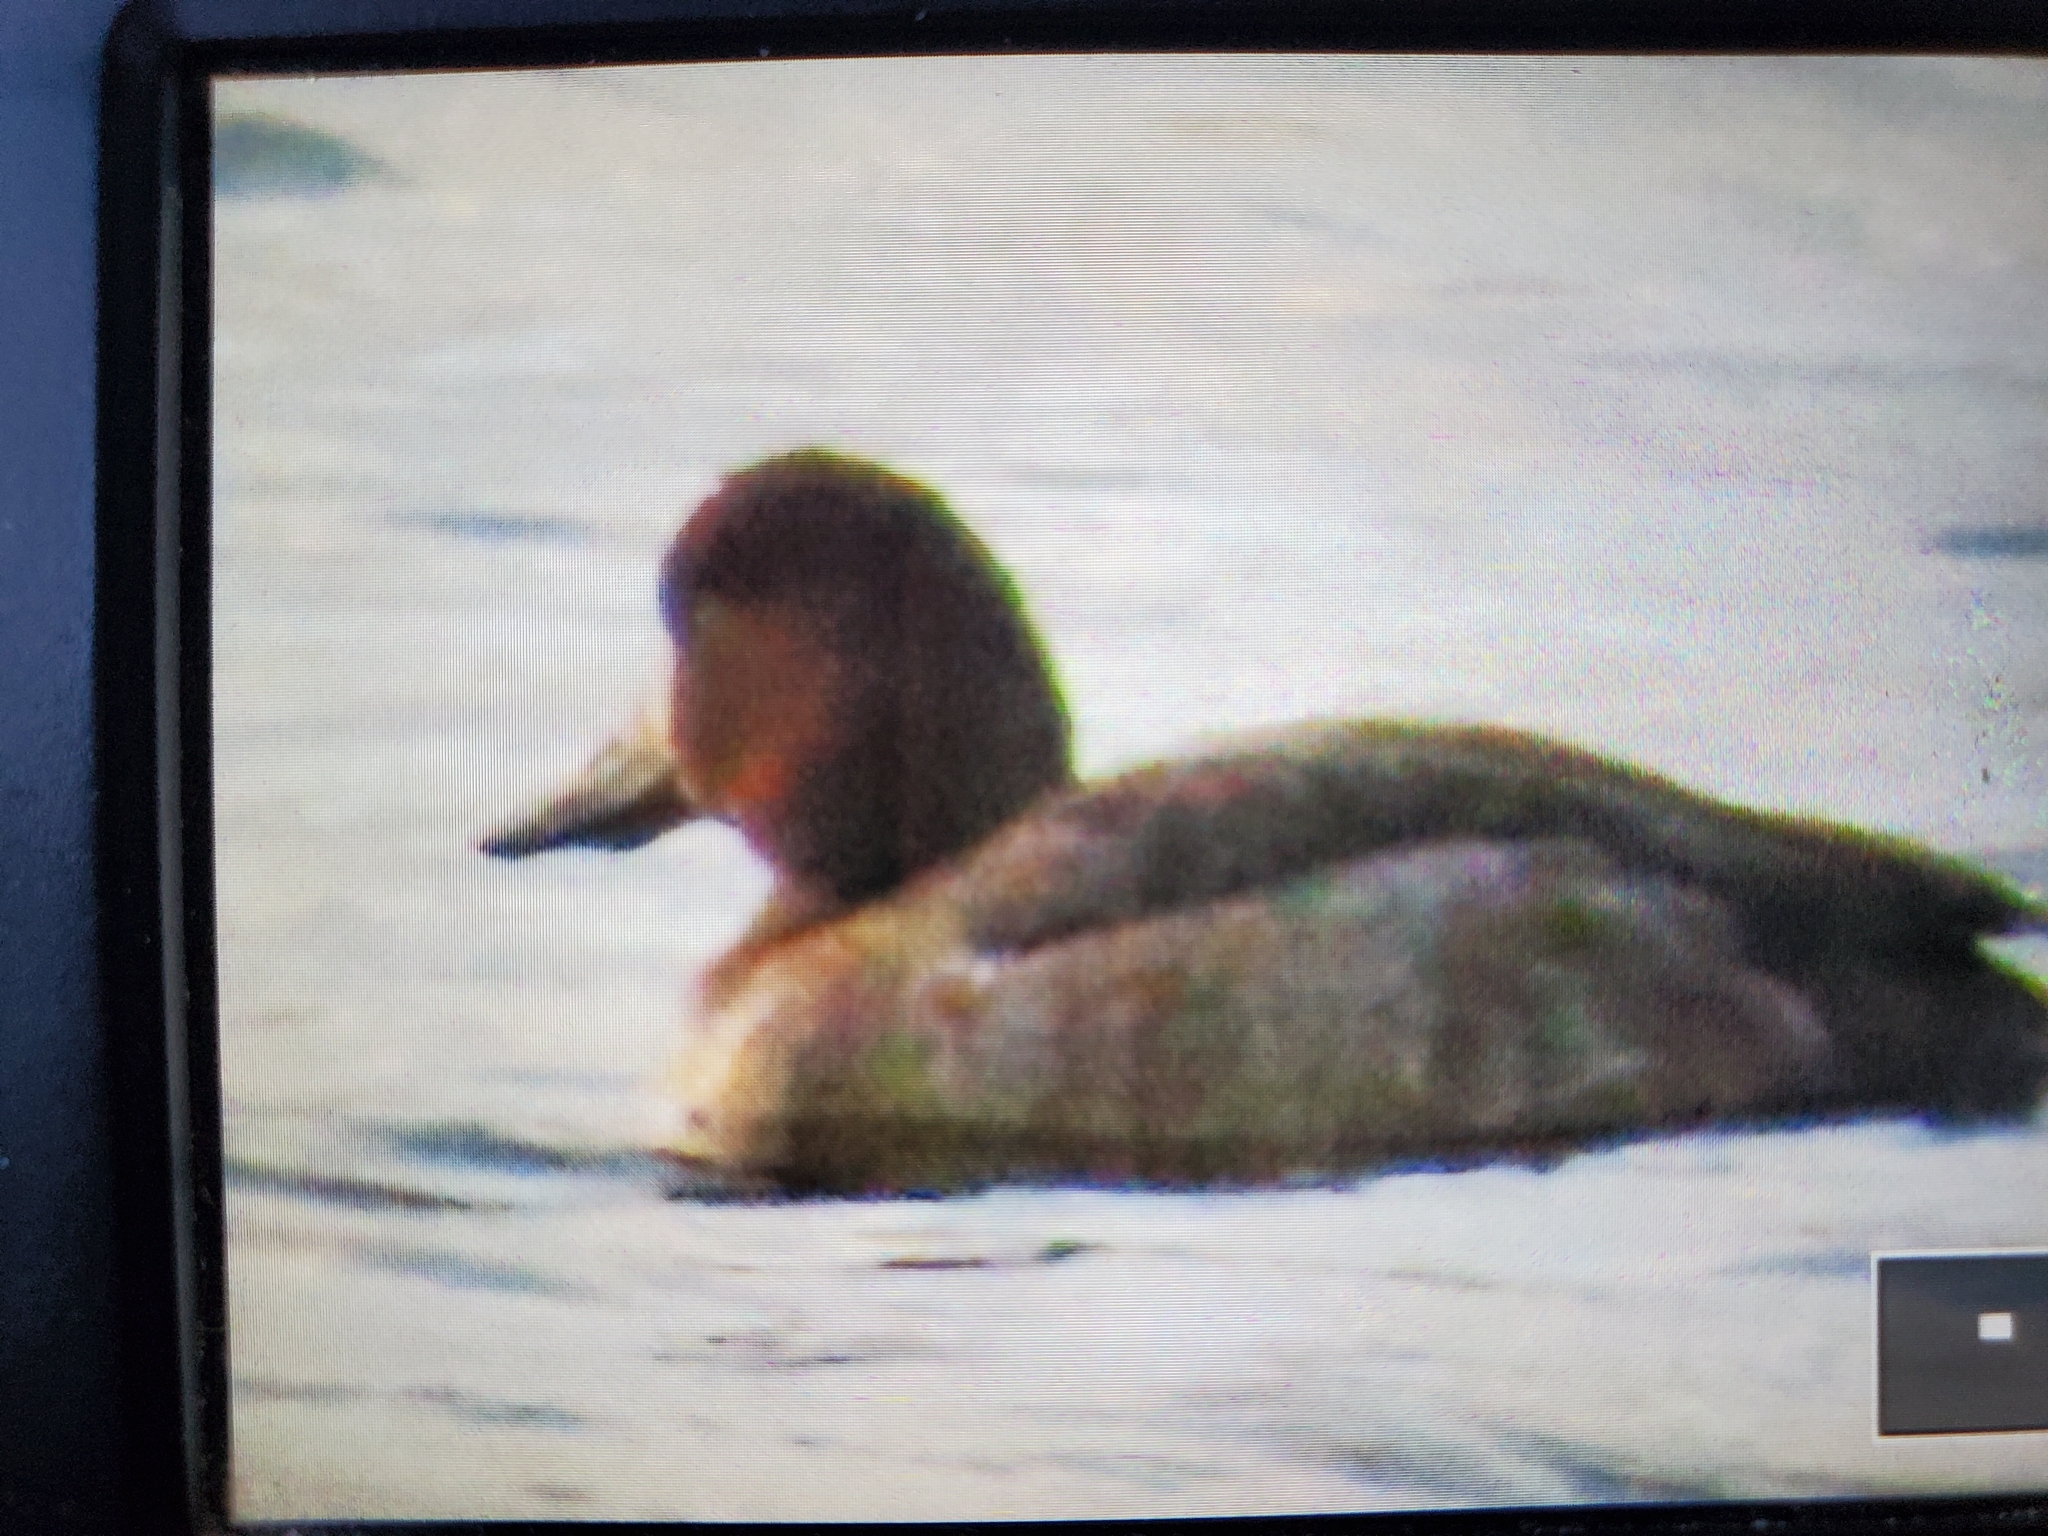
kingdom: Animalia
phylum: Chordata
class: Aves
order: Anseriformes
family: Anatidae
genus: Aythya
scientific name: Aythya affinis
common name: Lesser scaup
